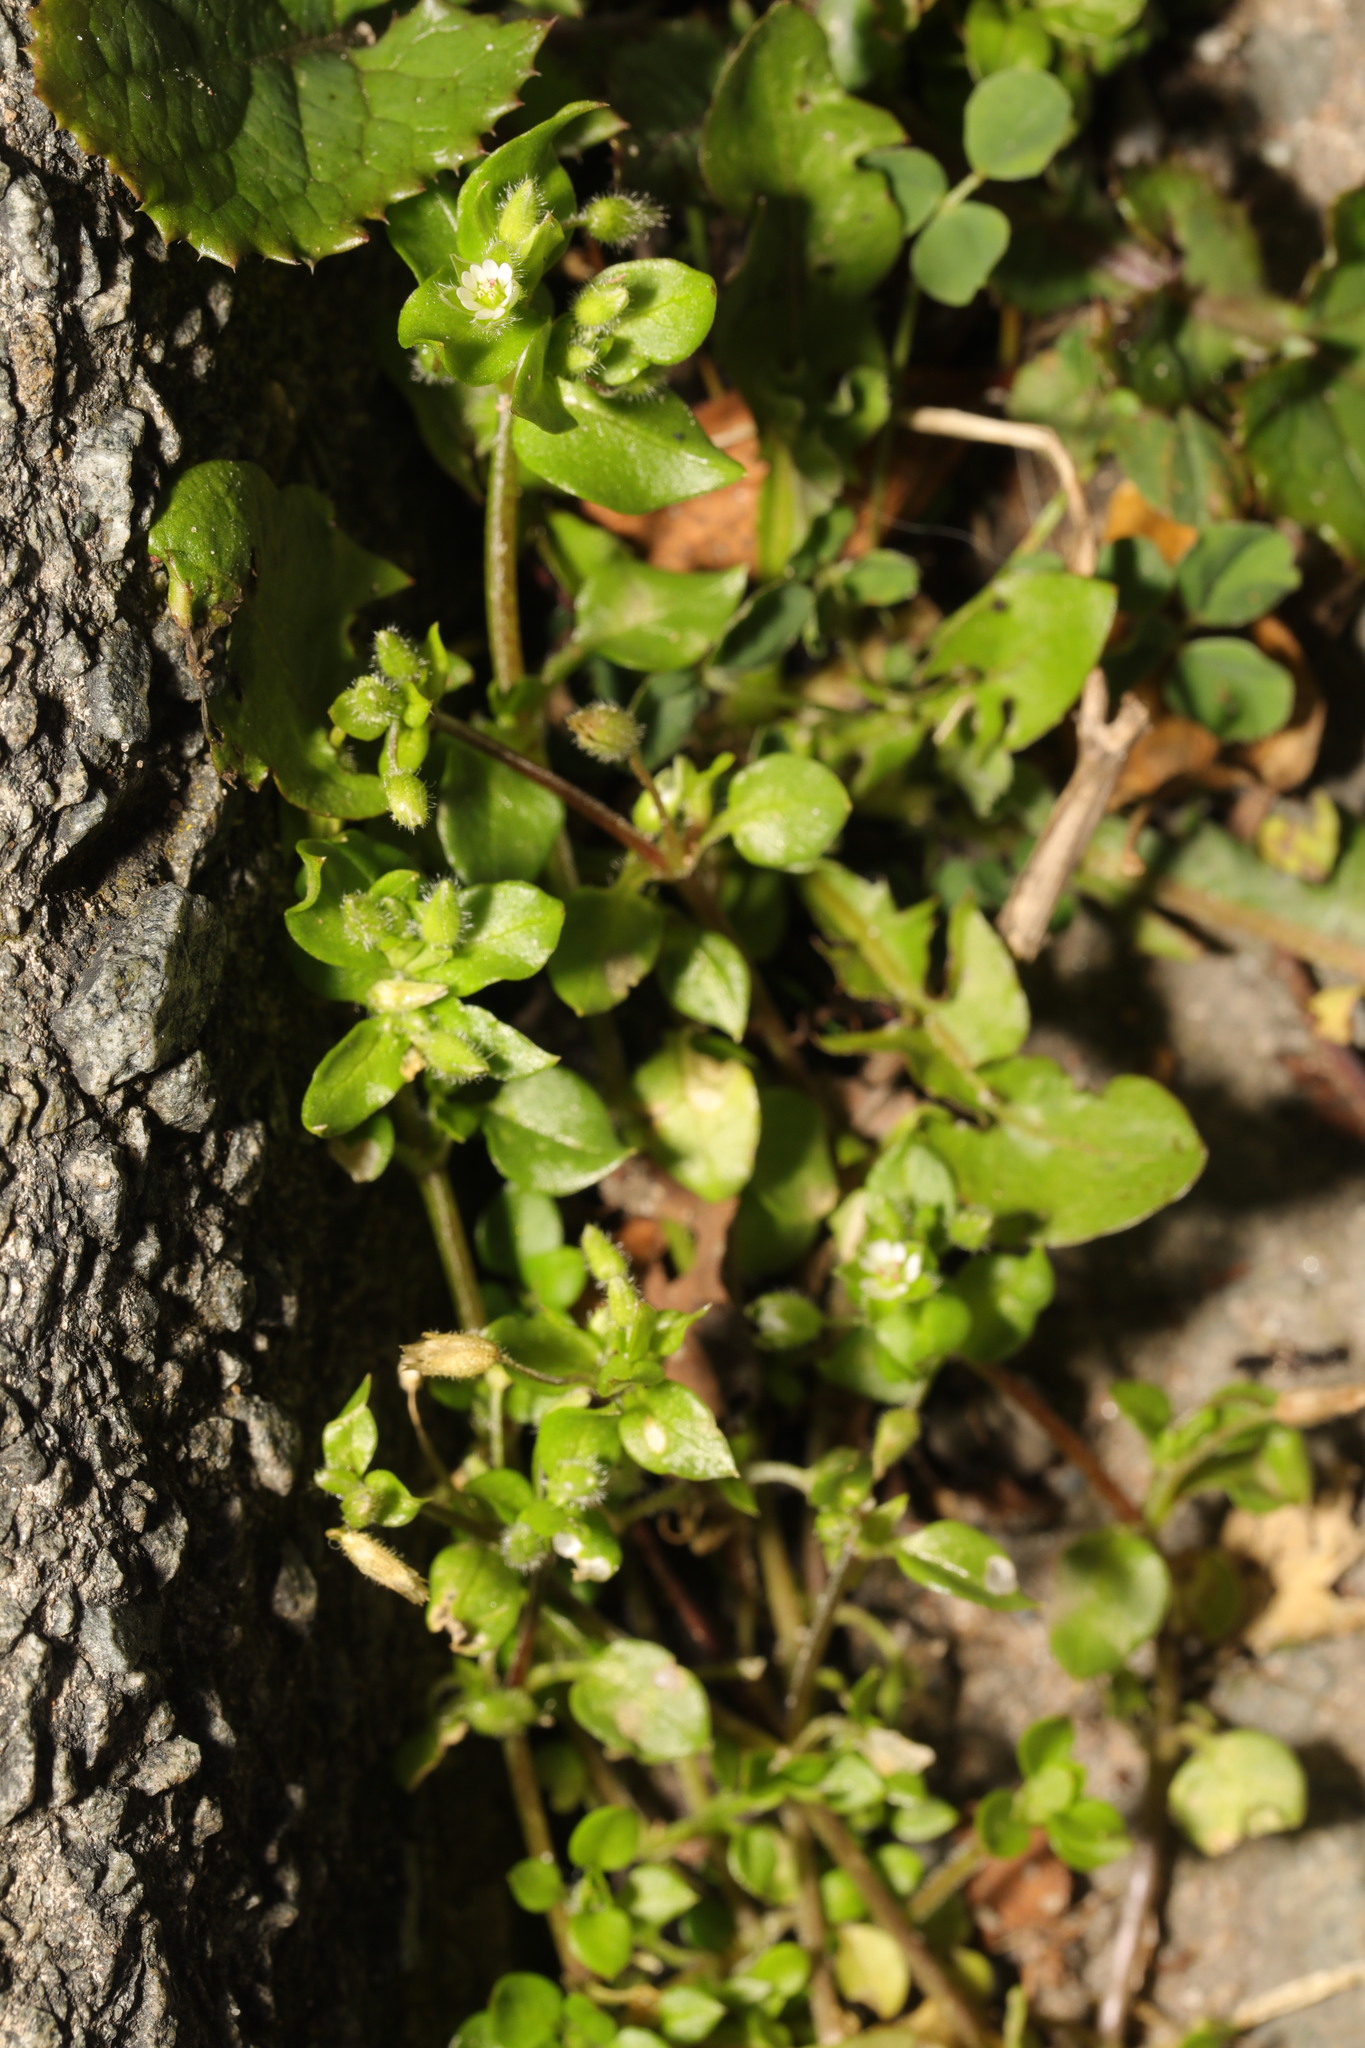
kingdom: Plantae
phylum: Tracheophyta
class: Magnoliopsida
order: Caryophyllales
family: Caryophyllaceae
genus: Stellaria
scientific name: Stellaria media
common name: Common chickweed
